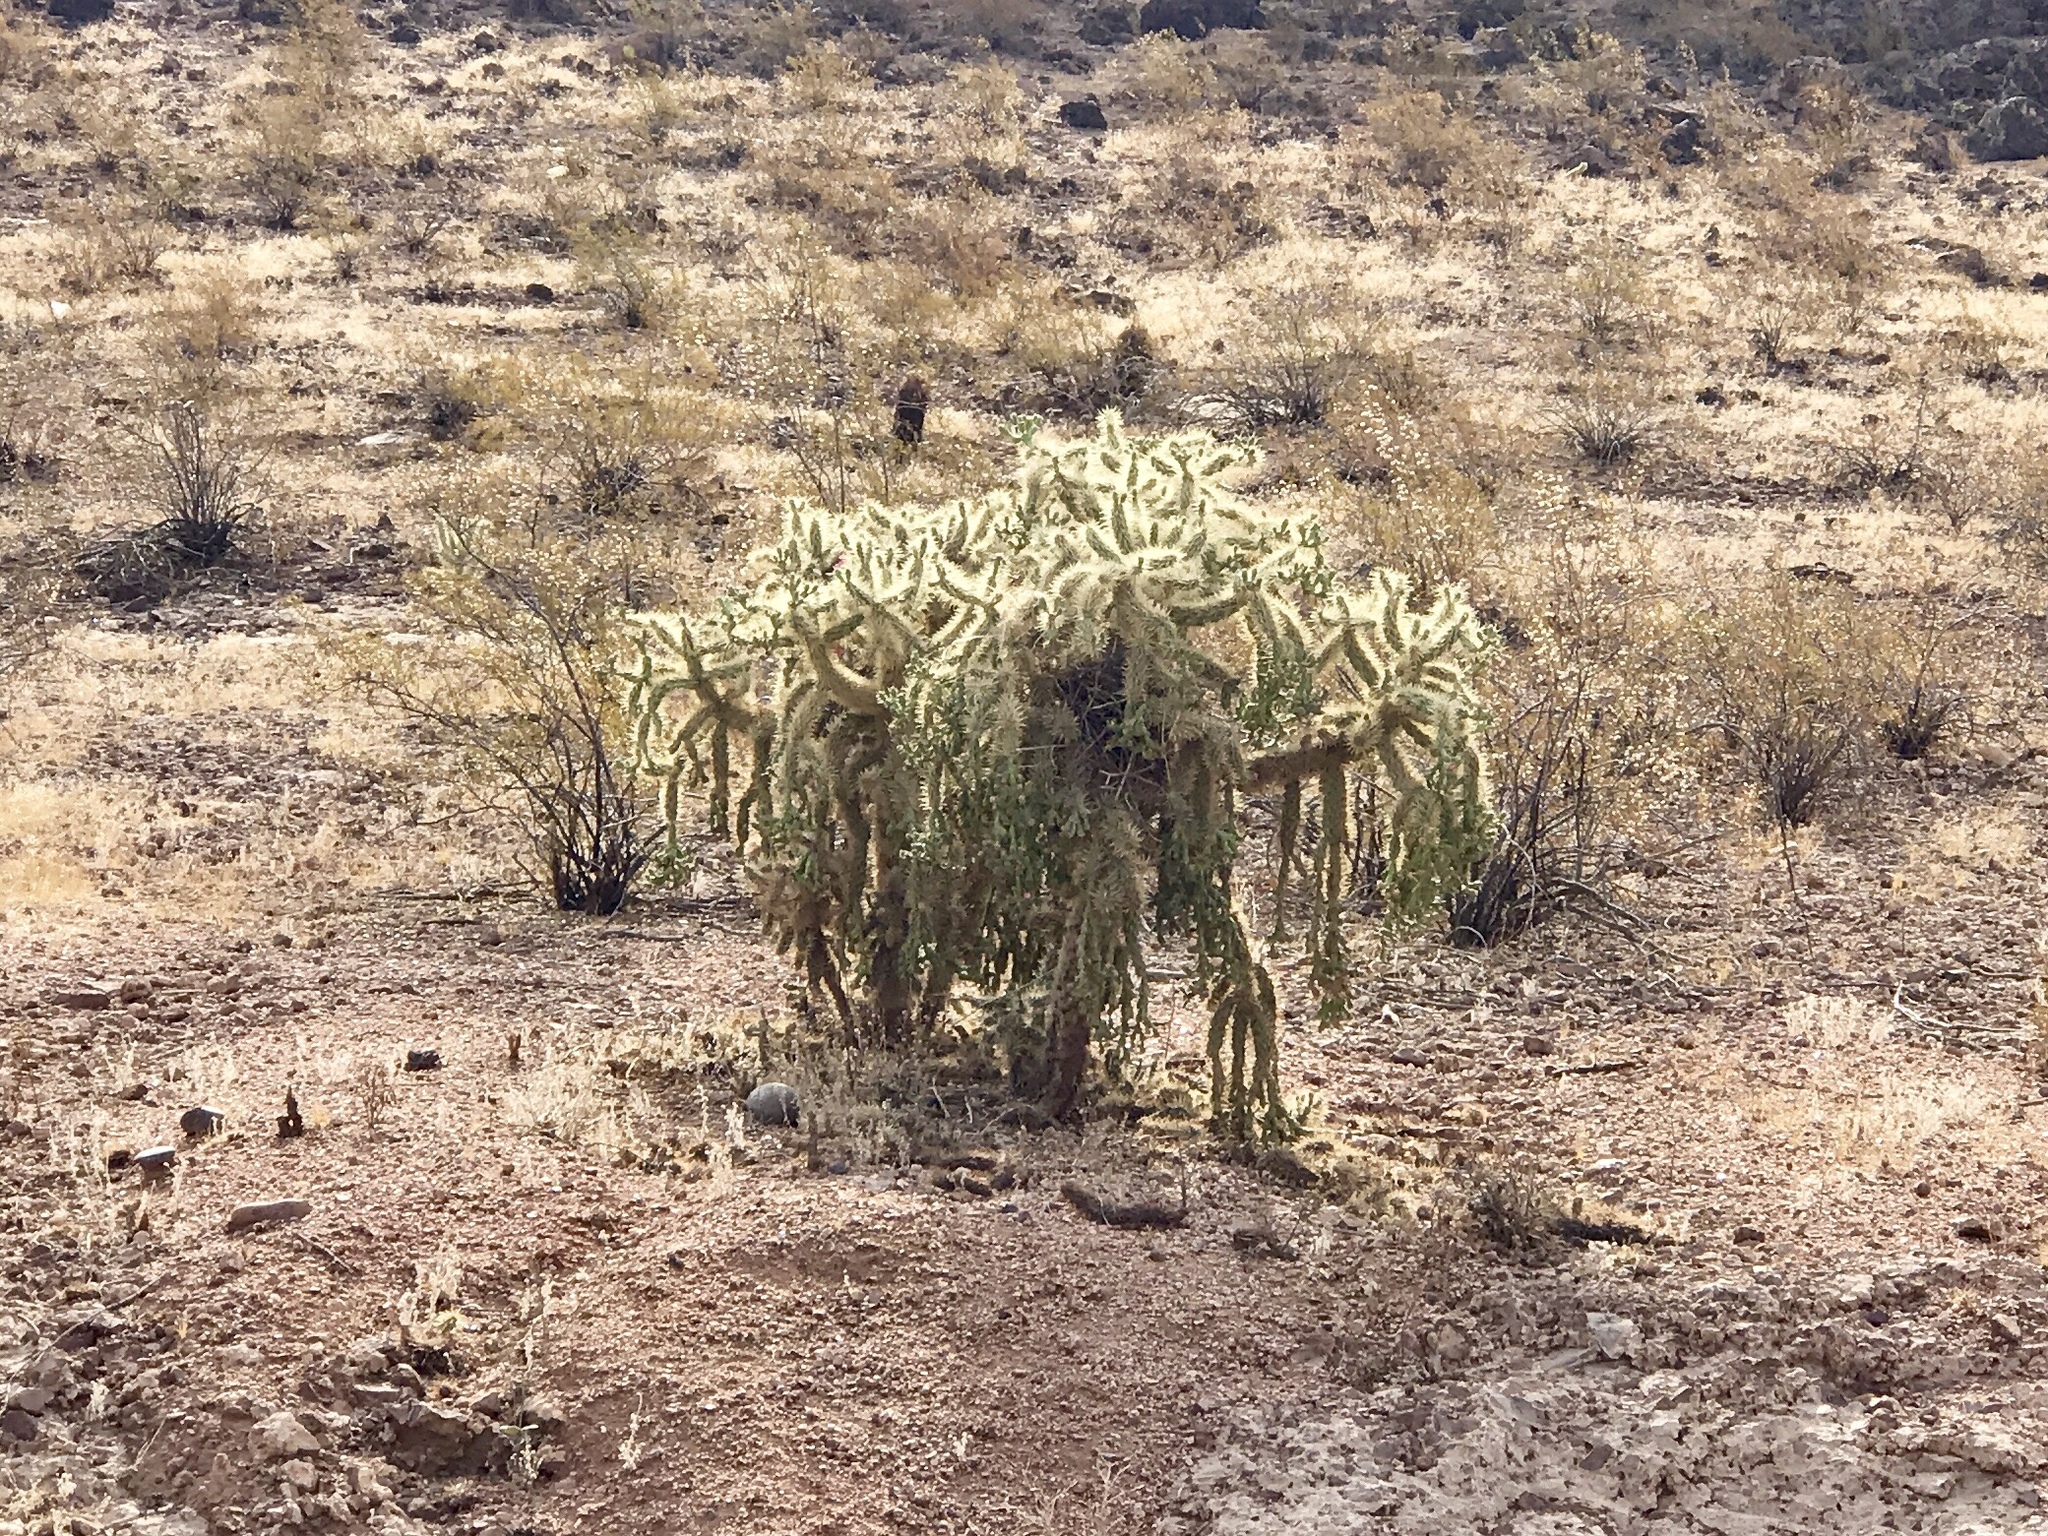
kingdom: Plantae
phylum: Tracheophyta
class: Magnoliopsida
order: Caryophyllales
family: Cactaceae
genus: Cylindropuntia
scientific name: Cylindropuntia fulgida
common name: Jumping cholla
